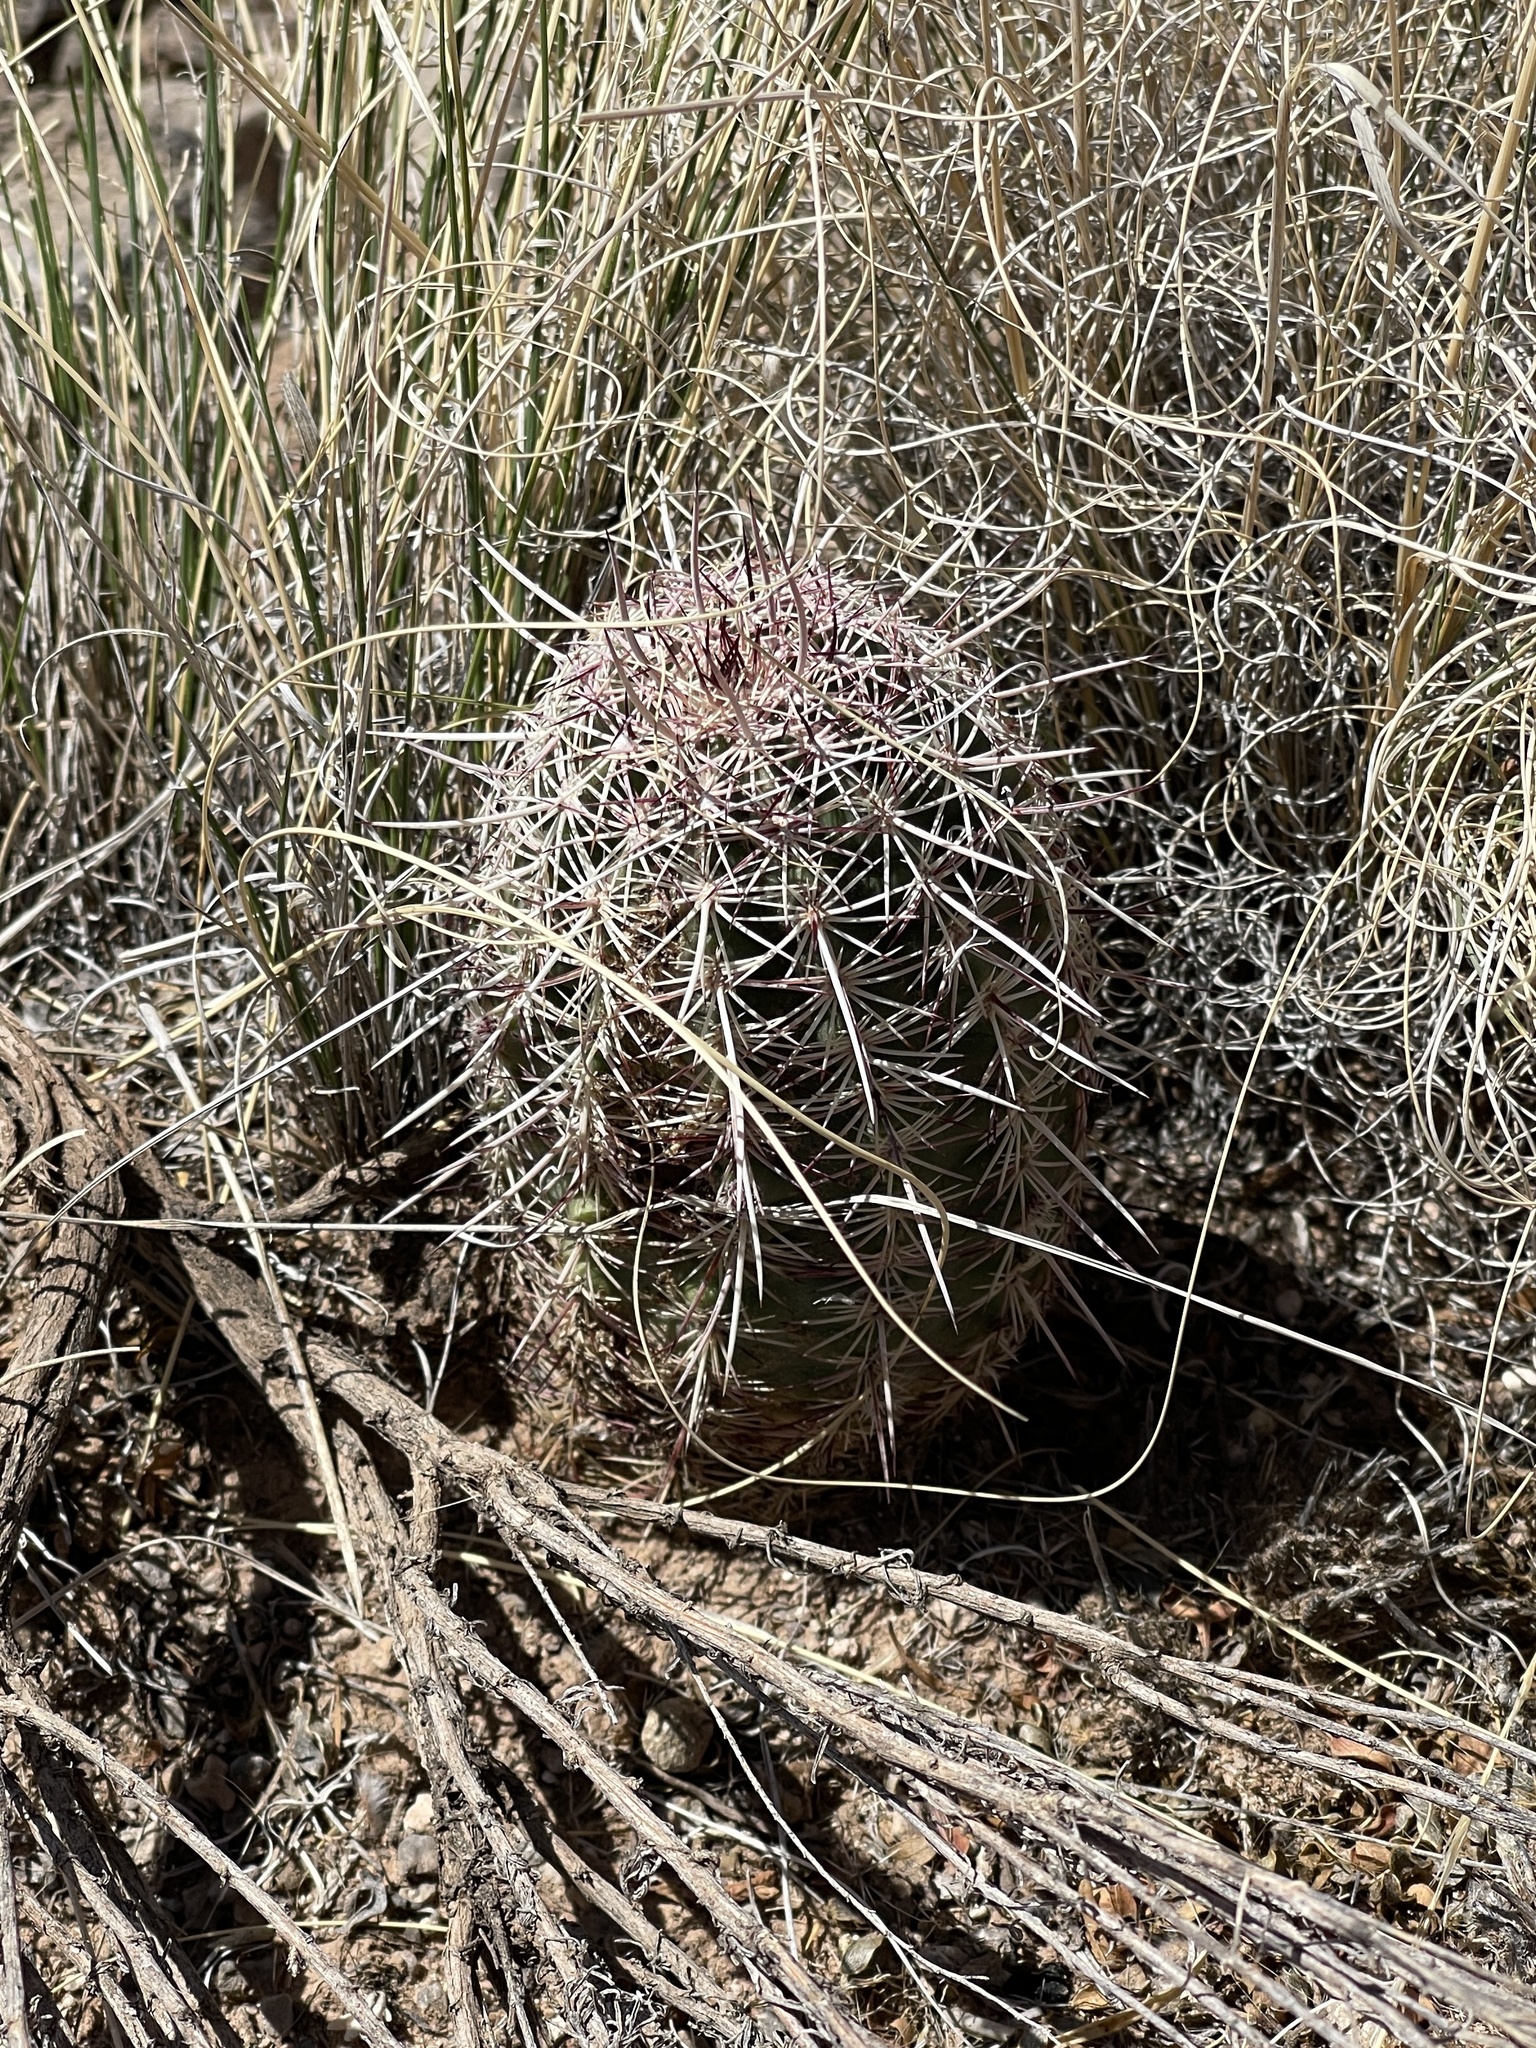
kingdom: Plantae
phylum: Tracheophyta
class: Magnoliopsida
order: Caryophyllales
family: Cactaceae
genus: Echinocereus
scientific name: Echinocereus viridiflorus
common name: Nylon hedgehog cactus
